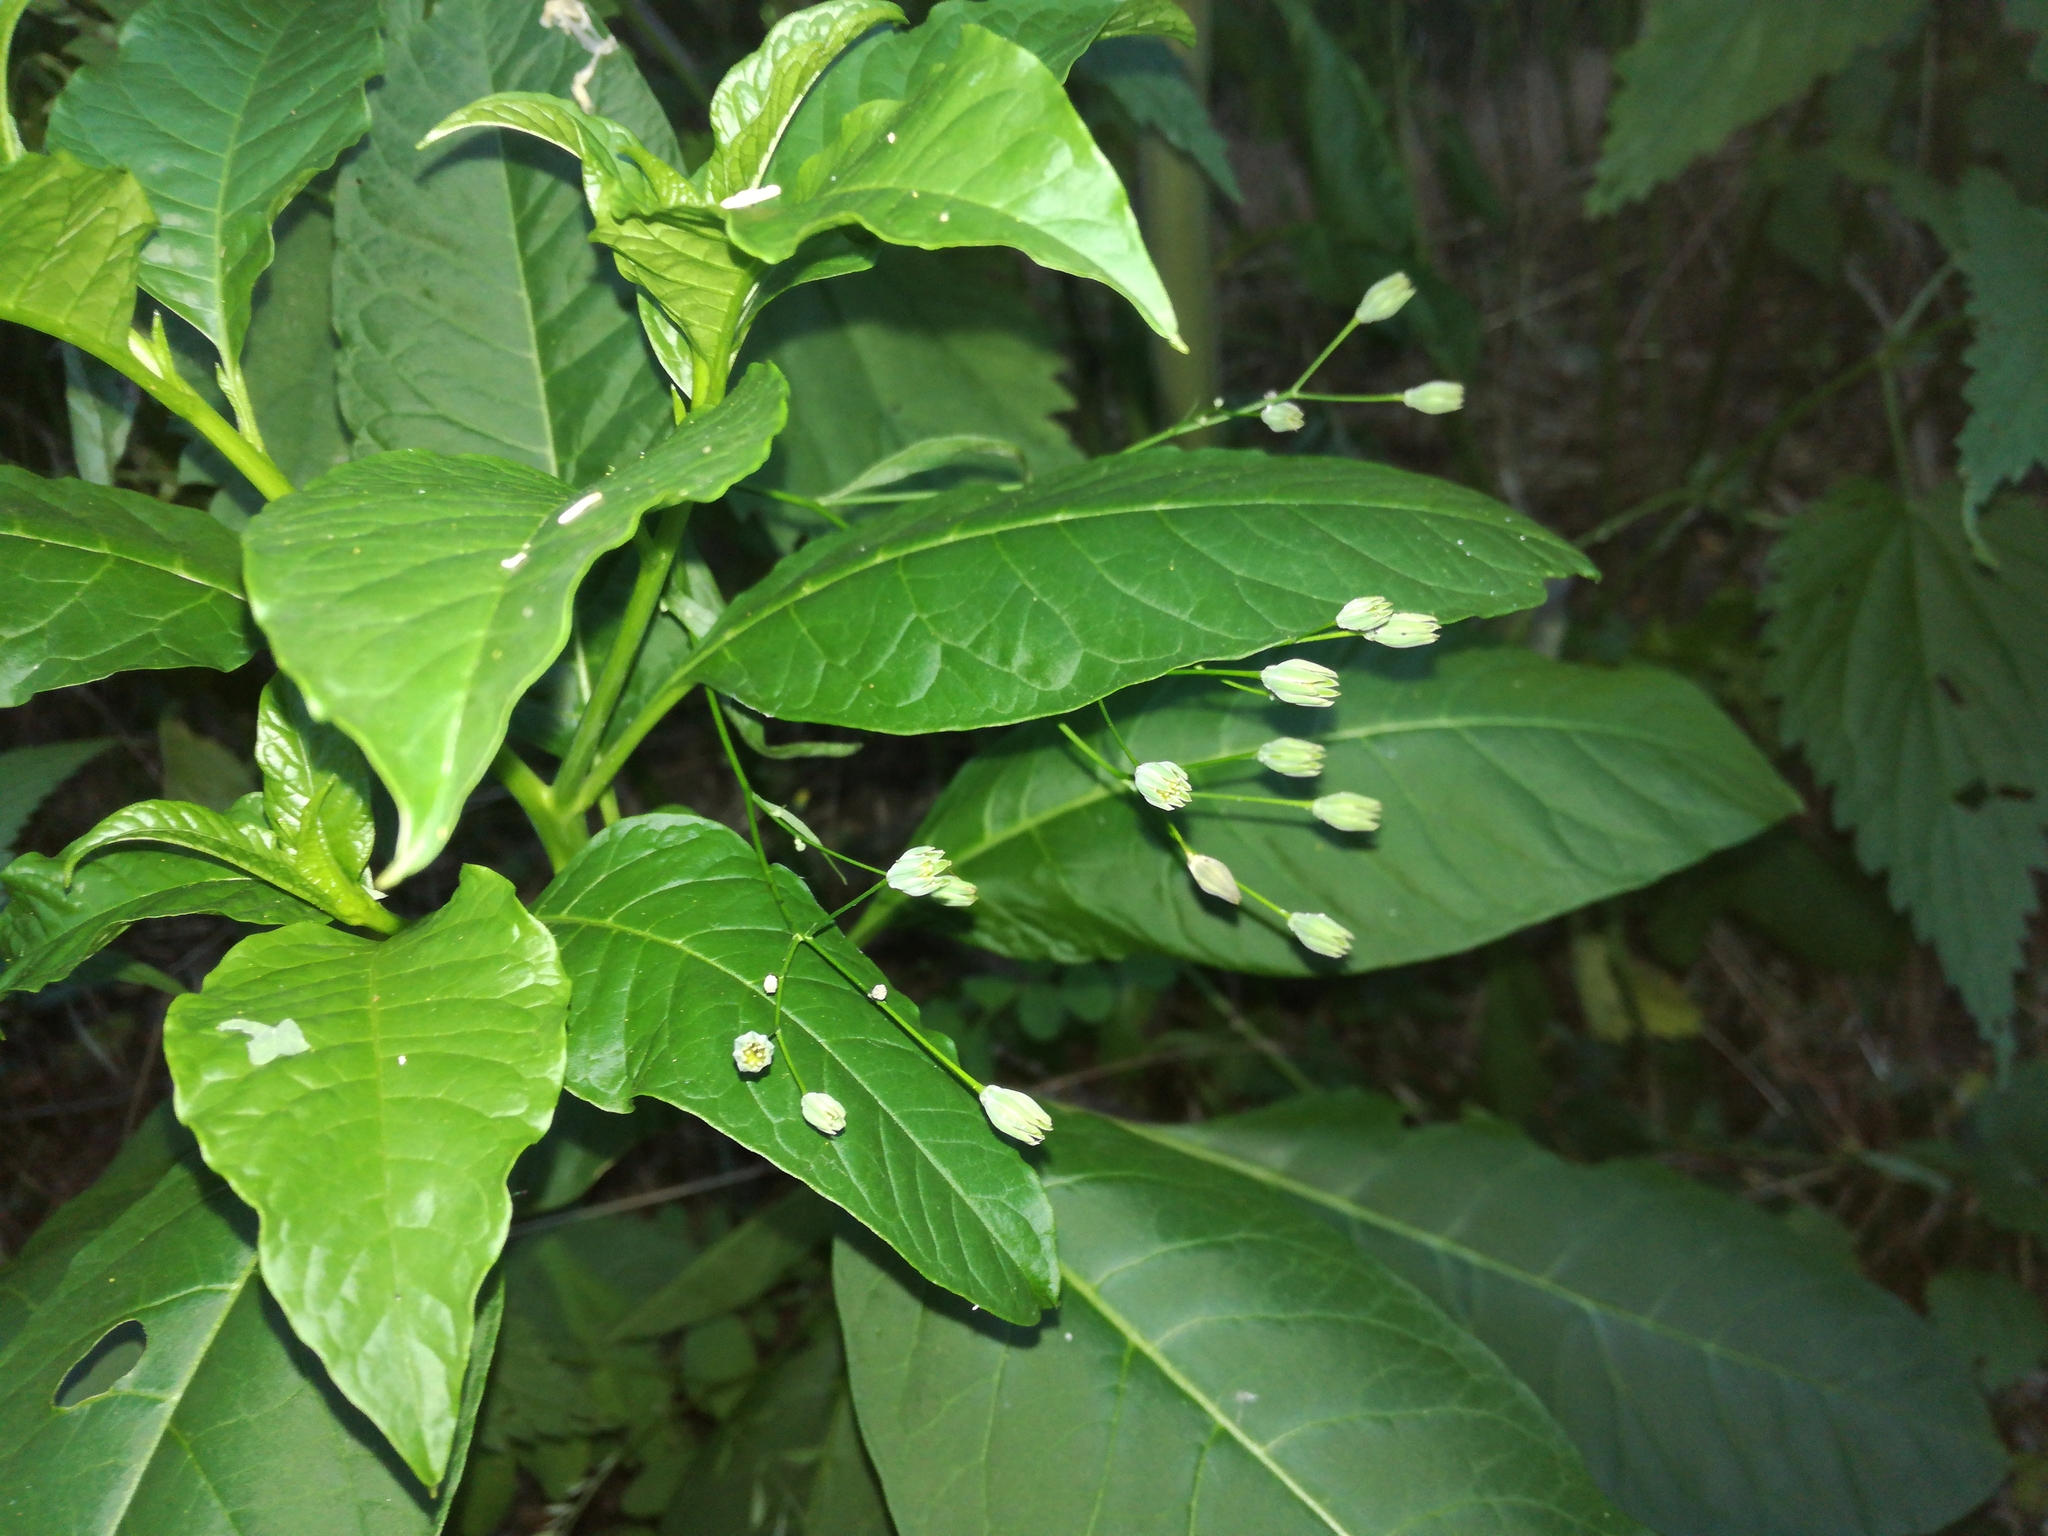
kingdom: Plantae
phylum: Tracheophyta
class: Magnoliopsida
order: Caryophyllales
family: Phytolaccaceae
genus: Phytolacca
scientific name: Phytolacca americana
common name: American pokeweed
